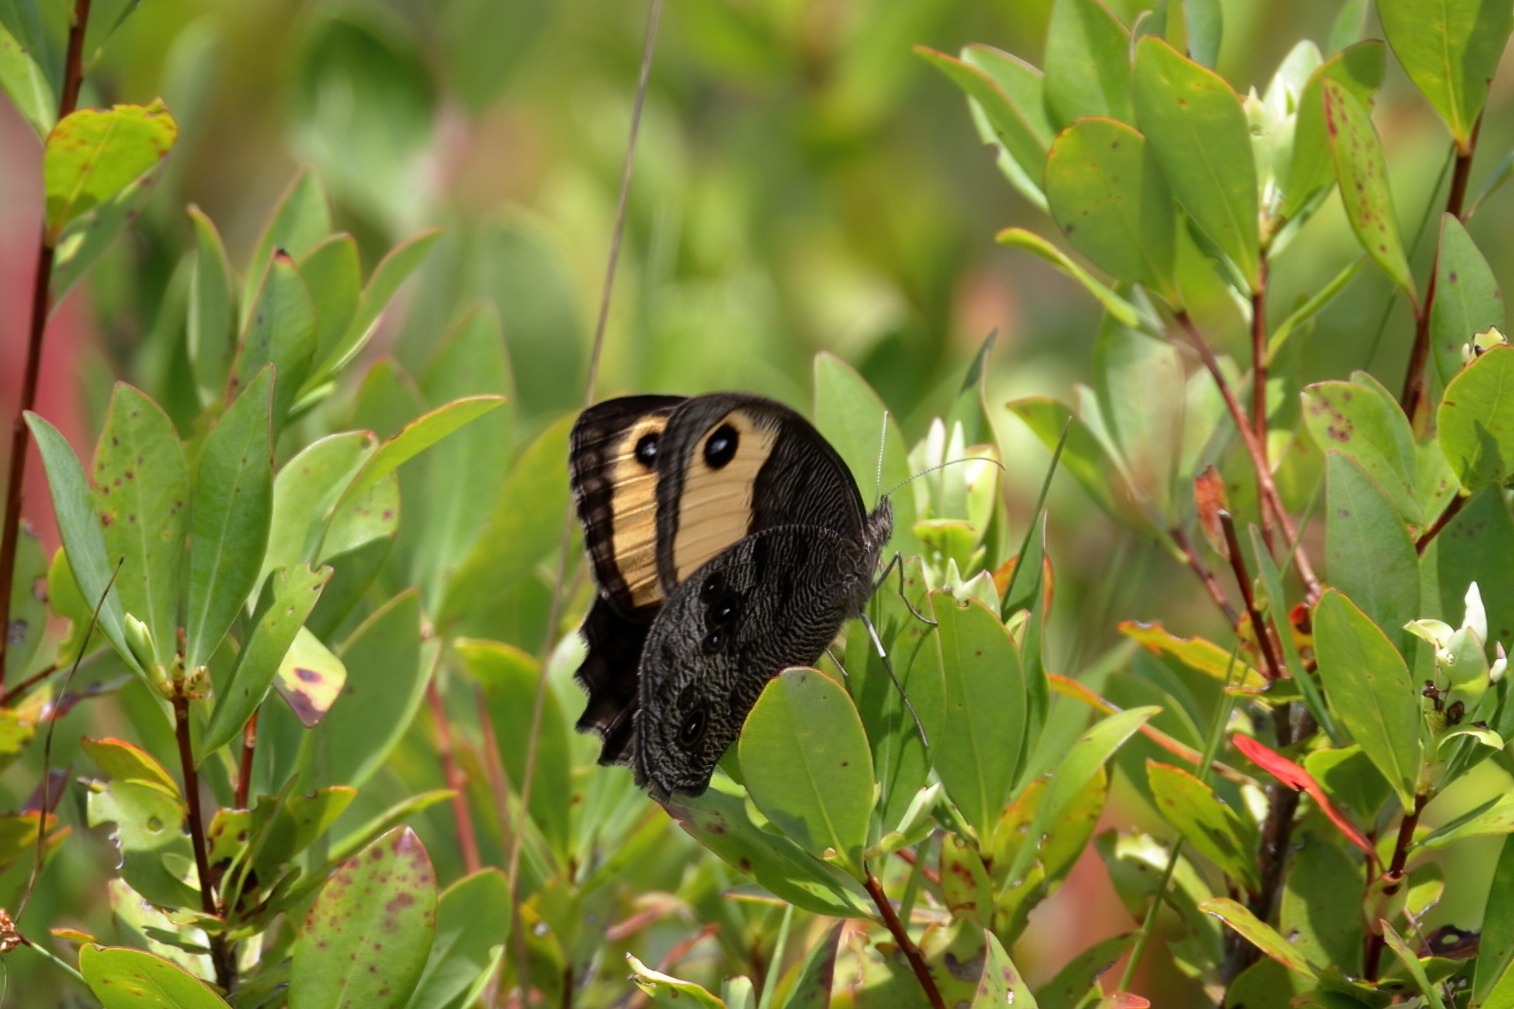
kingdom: Animalia
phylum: Arthropoda
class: Insecta
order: Lepidoptera
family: Nymphalidae
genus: Cercyonis
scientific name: Cercyonis pegala
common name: Common wood-nymph
